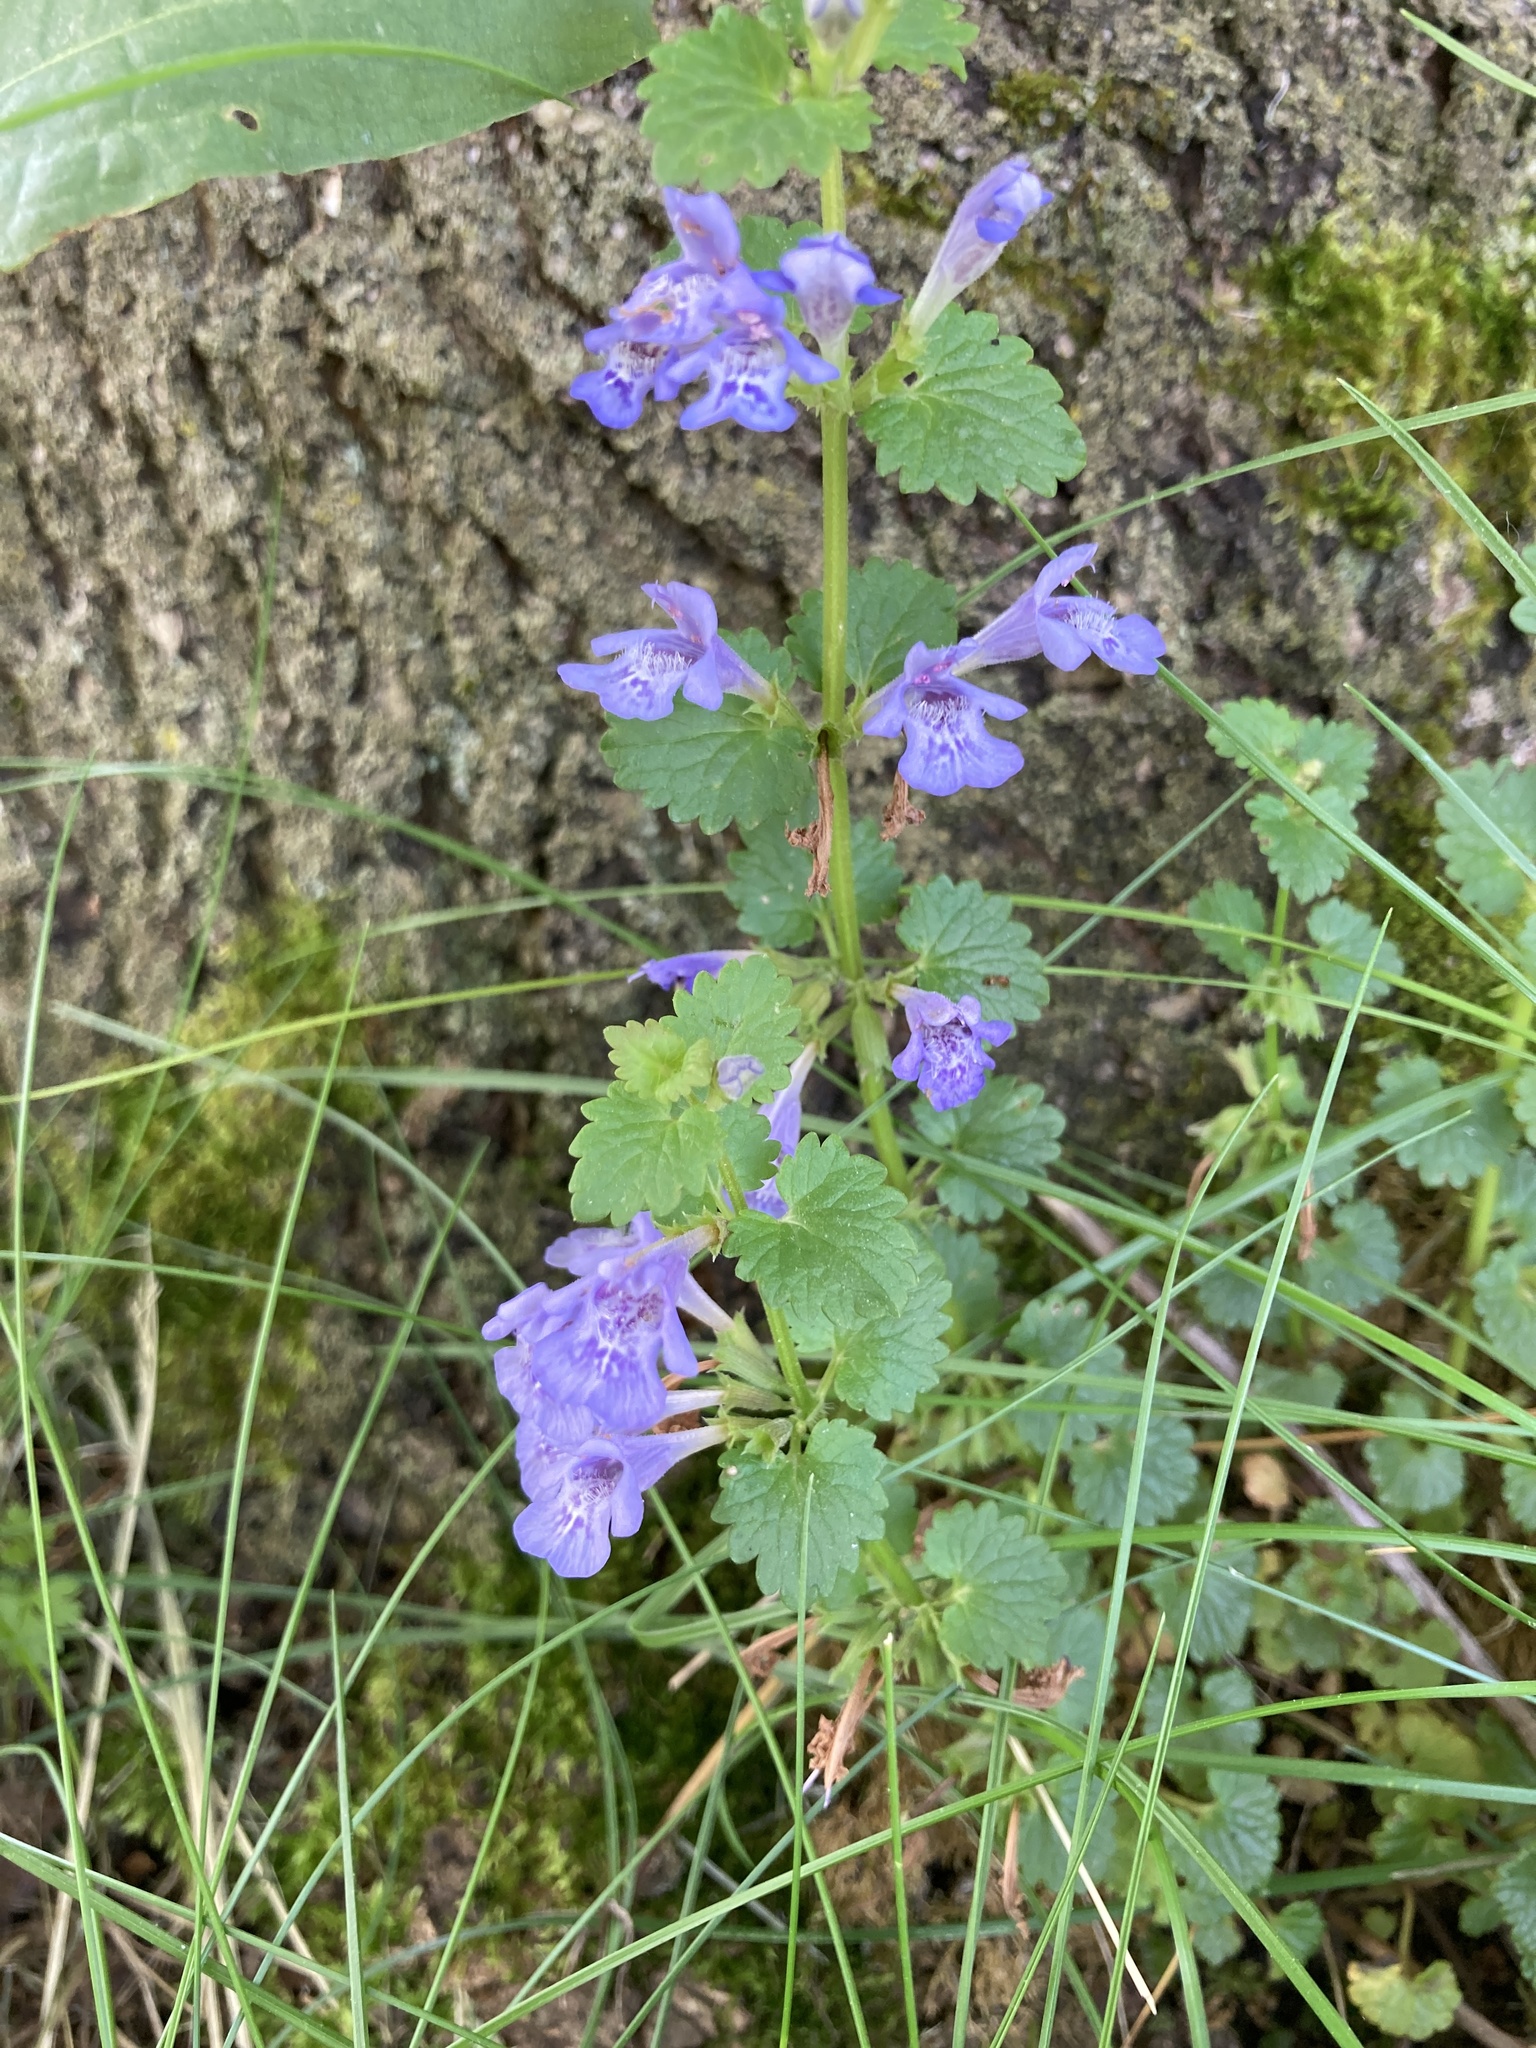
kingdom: Plantae
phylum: Tracheophyta
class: Magnoliopsida
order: Lamiales
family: Lamiaceae
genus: Glechoma
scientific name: Glechoma hederacea
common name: Ground ivy
